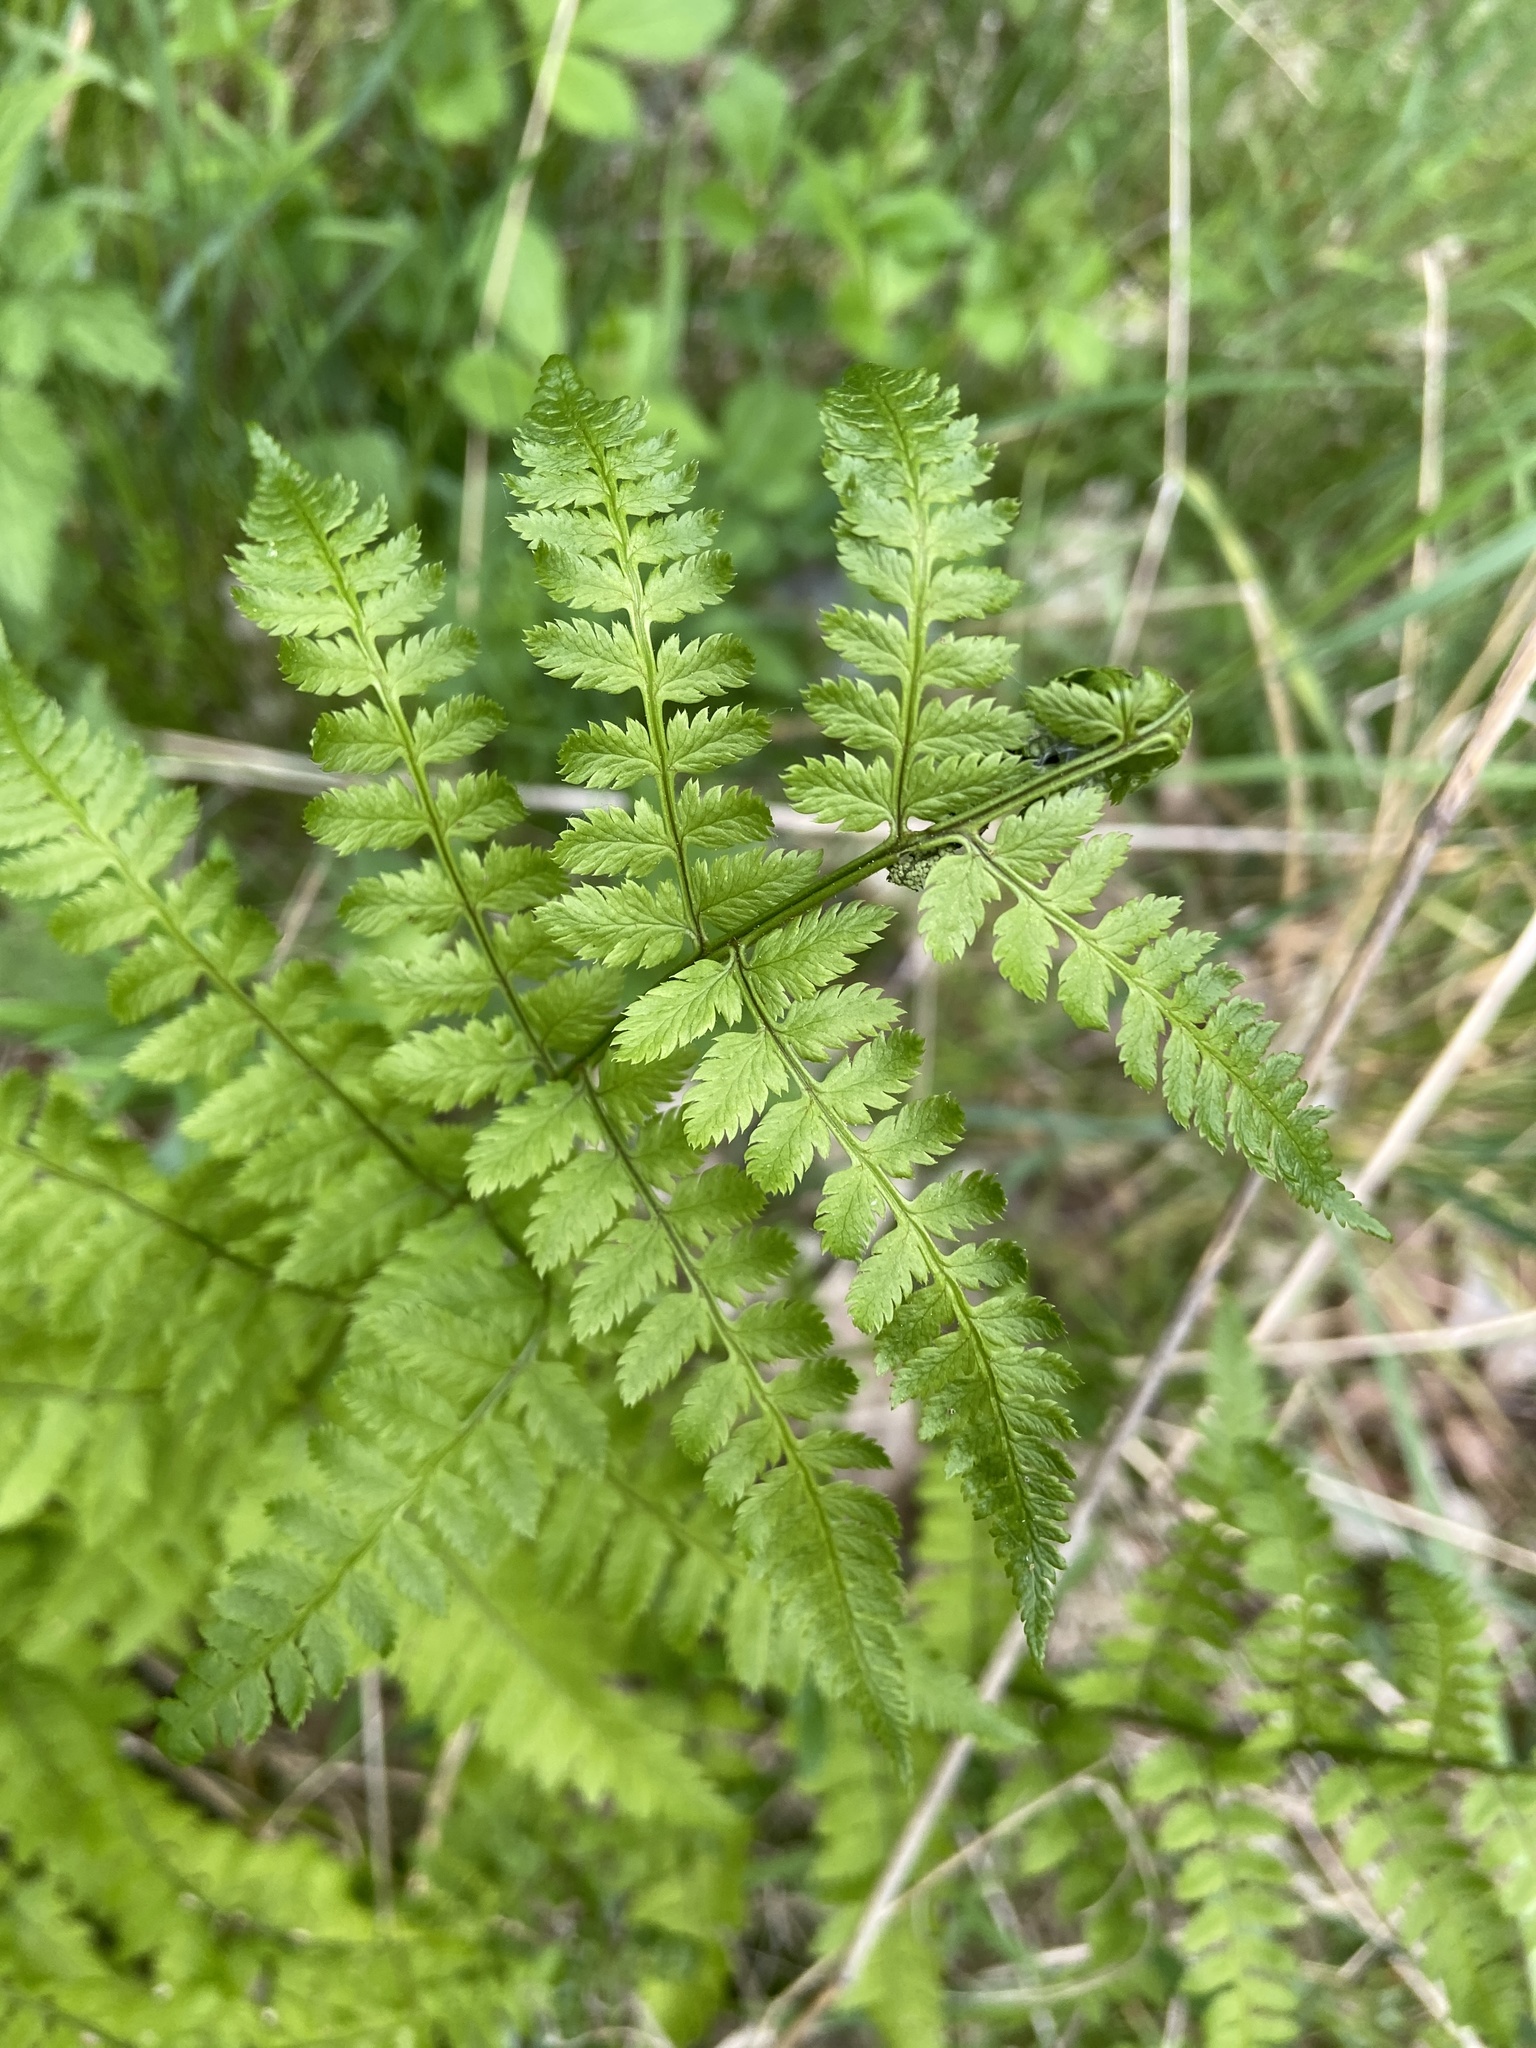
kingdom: Plantae
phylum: Tracheophyta
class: Polypodiopsida
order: Polypodiales
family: Dryopteridaceae
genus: Dryopteris
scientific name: Dryopteris carthusiana
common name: Narrow buckler-fern
